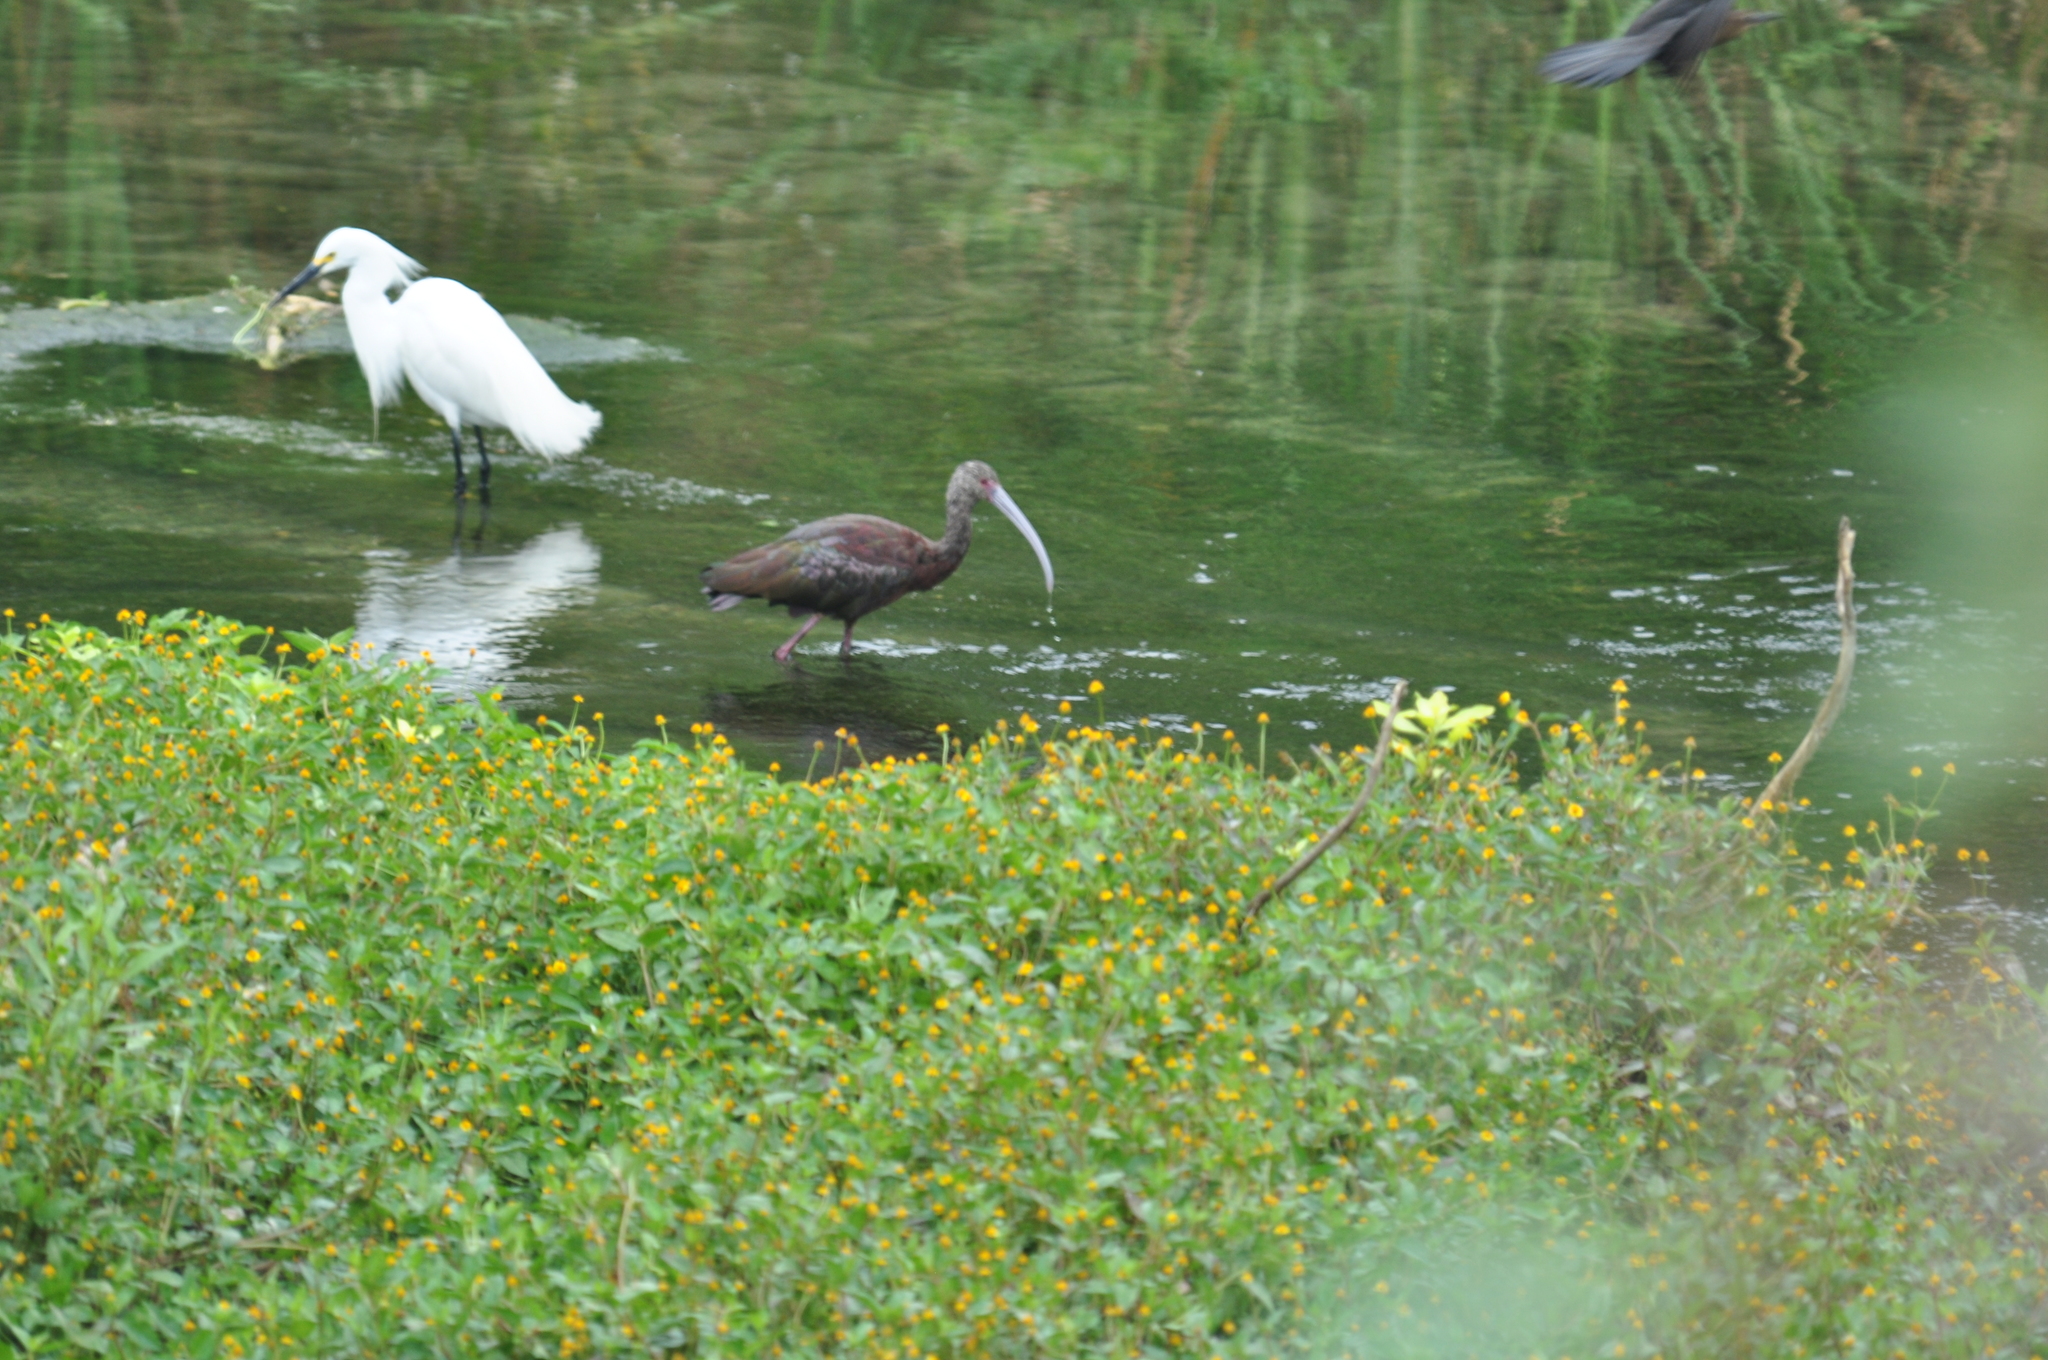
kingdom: Animalia
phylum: Chordata
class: Aves
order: Pelecaniformes
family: Ardeidae
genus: Egretta
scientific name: Egretta thula
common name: Snowy egret
